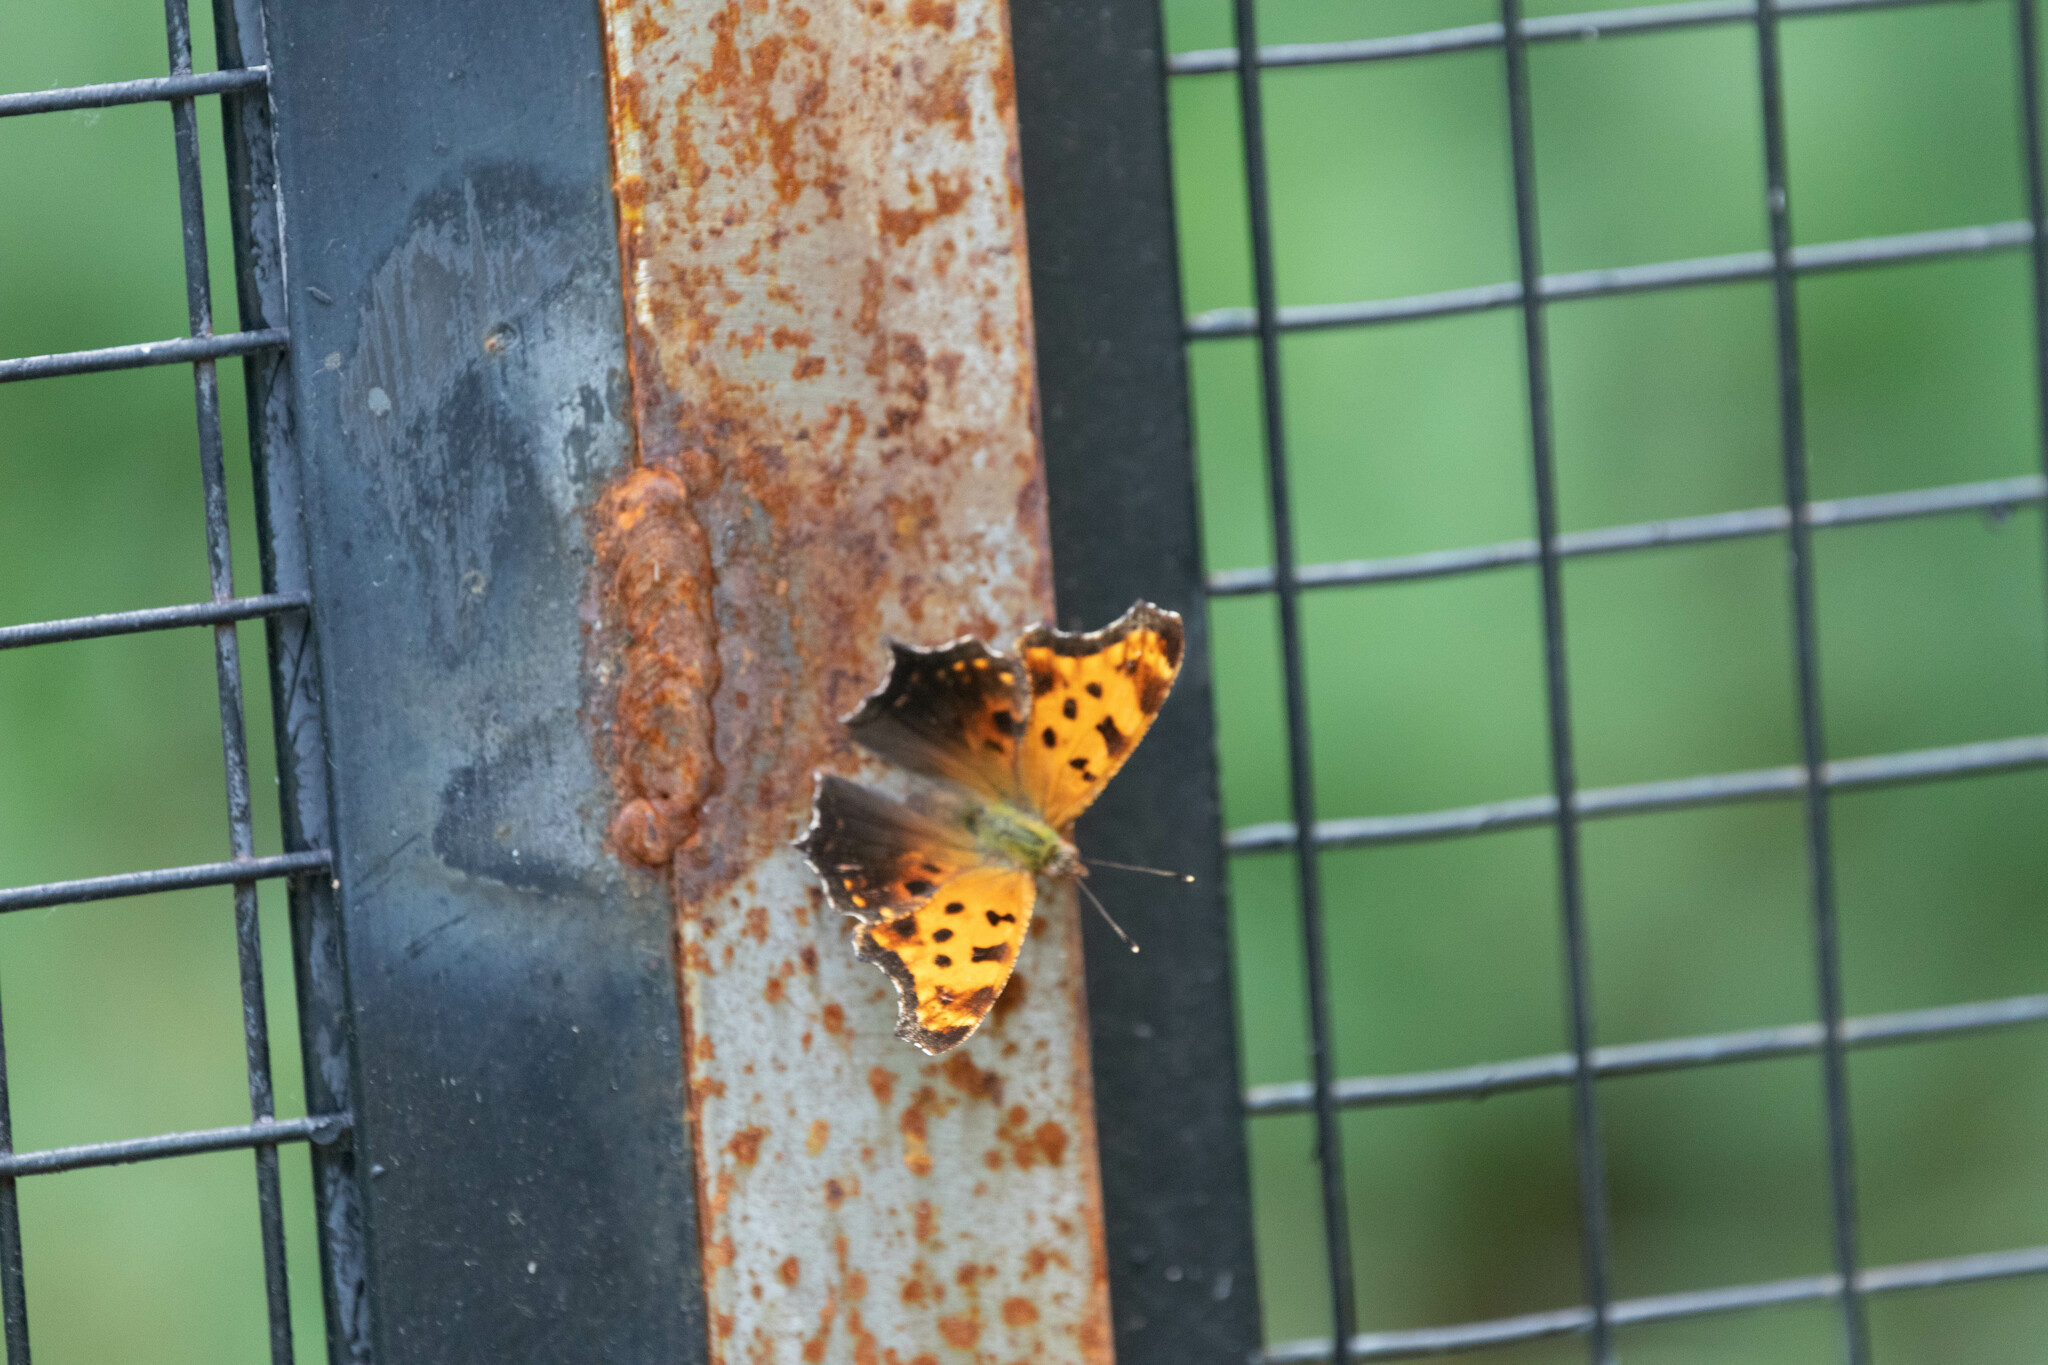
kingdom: Animalia
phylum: Arthropoda
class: Insecta
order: Lepidoptera
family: Nymphalidae
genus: Polygonia
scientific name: Polygonia comma
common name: Eastern comma
